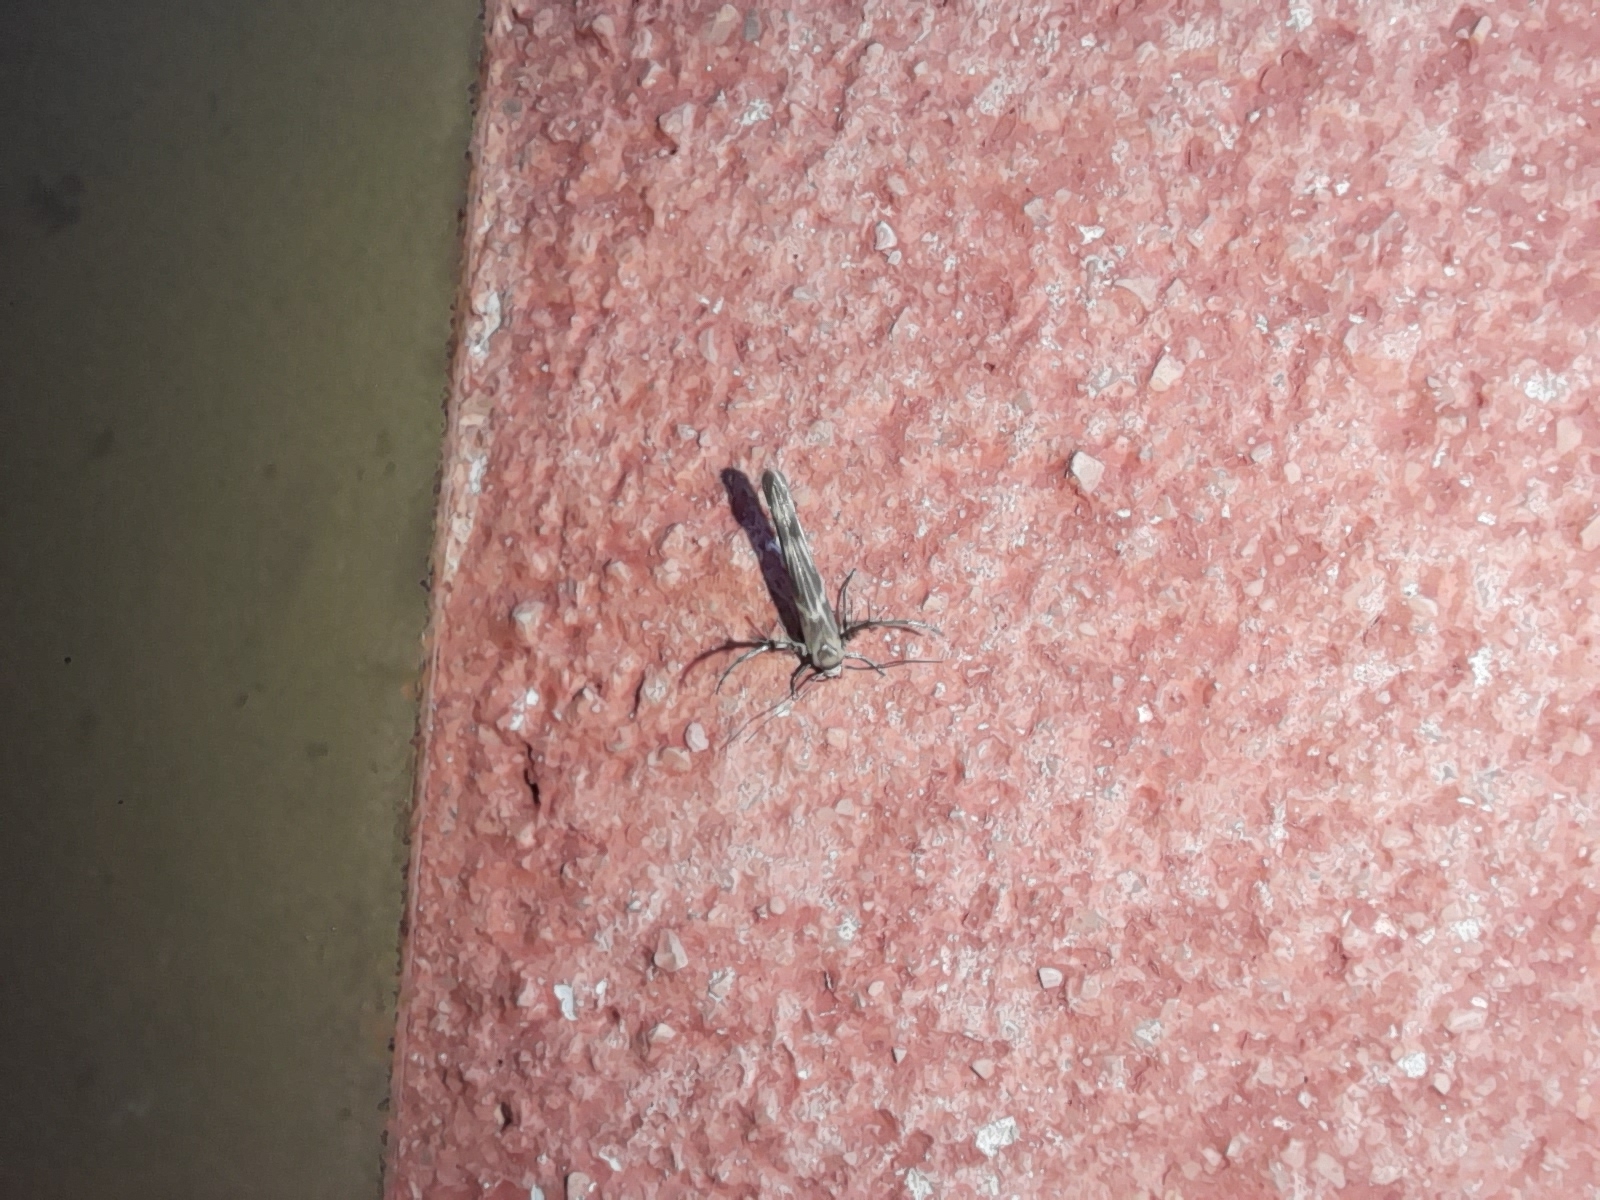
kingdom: Animalia
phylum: Arthropoda
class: Insecta
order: Lepidoptera
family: Gelechiidae
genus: Palumbina
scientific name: Palumbina guerinii
